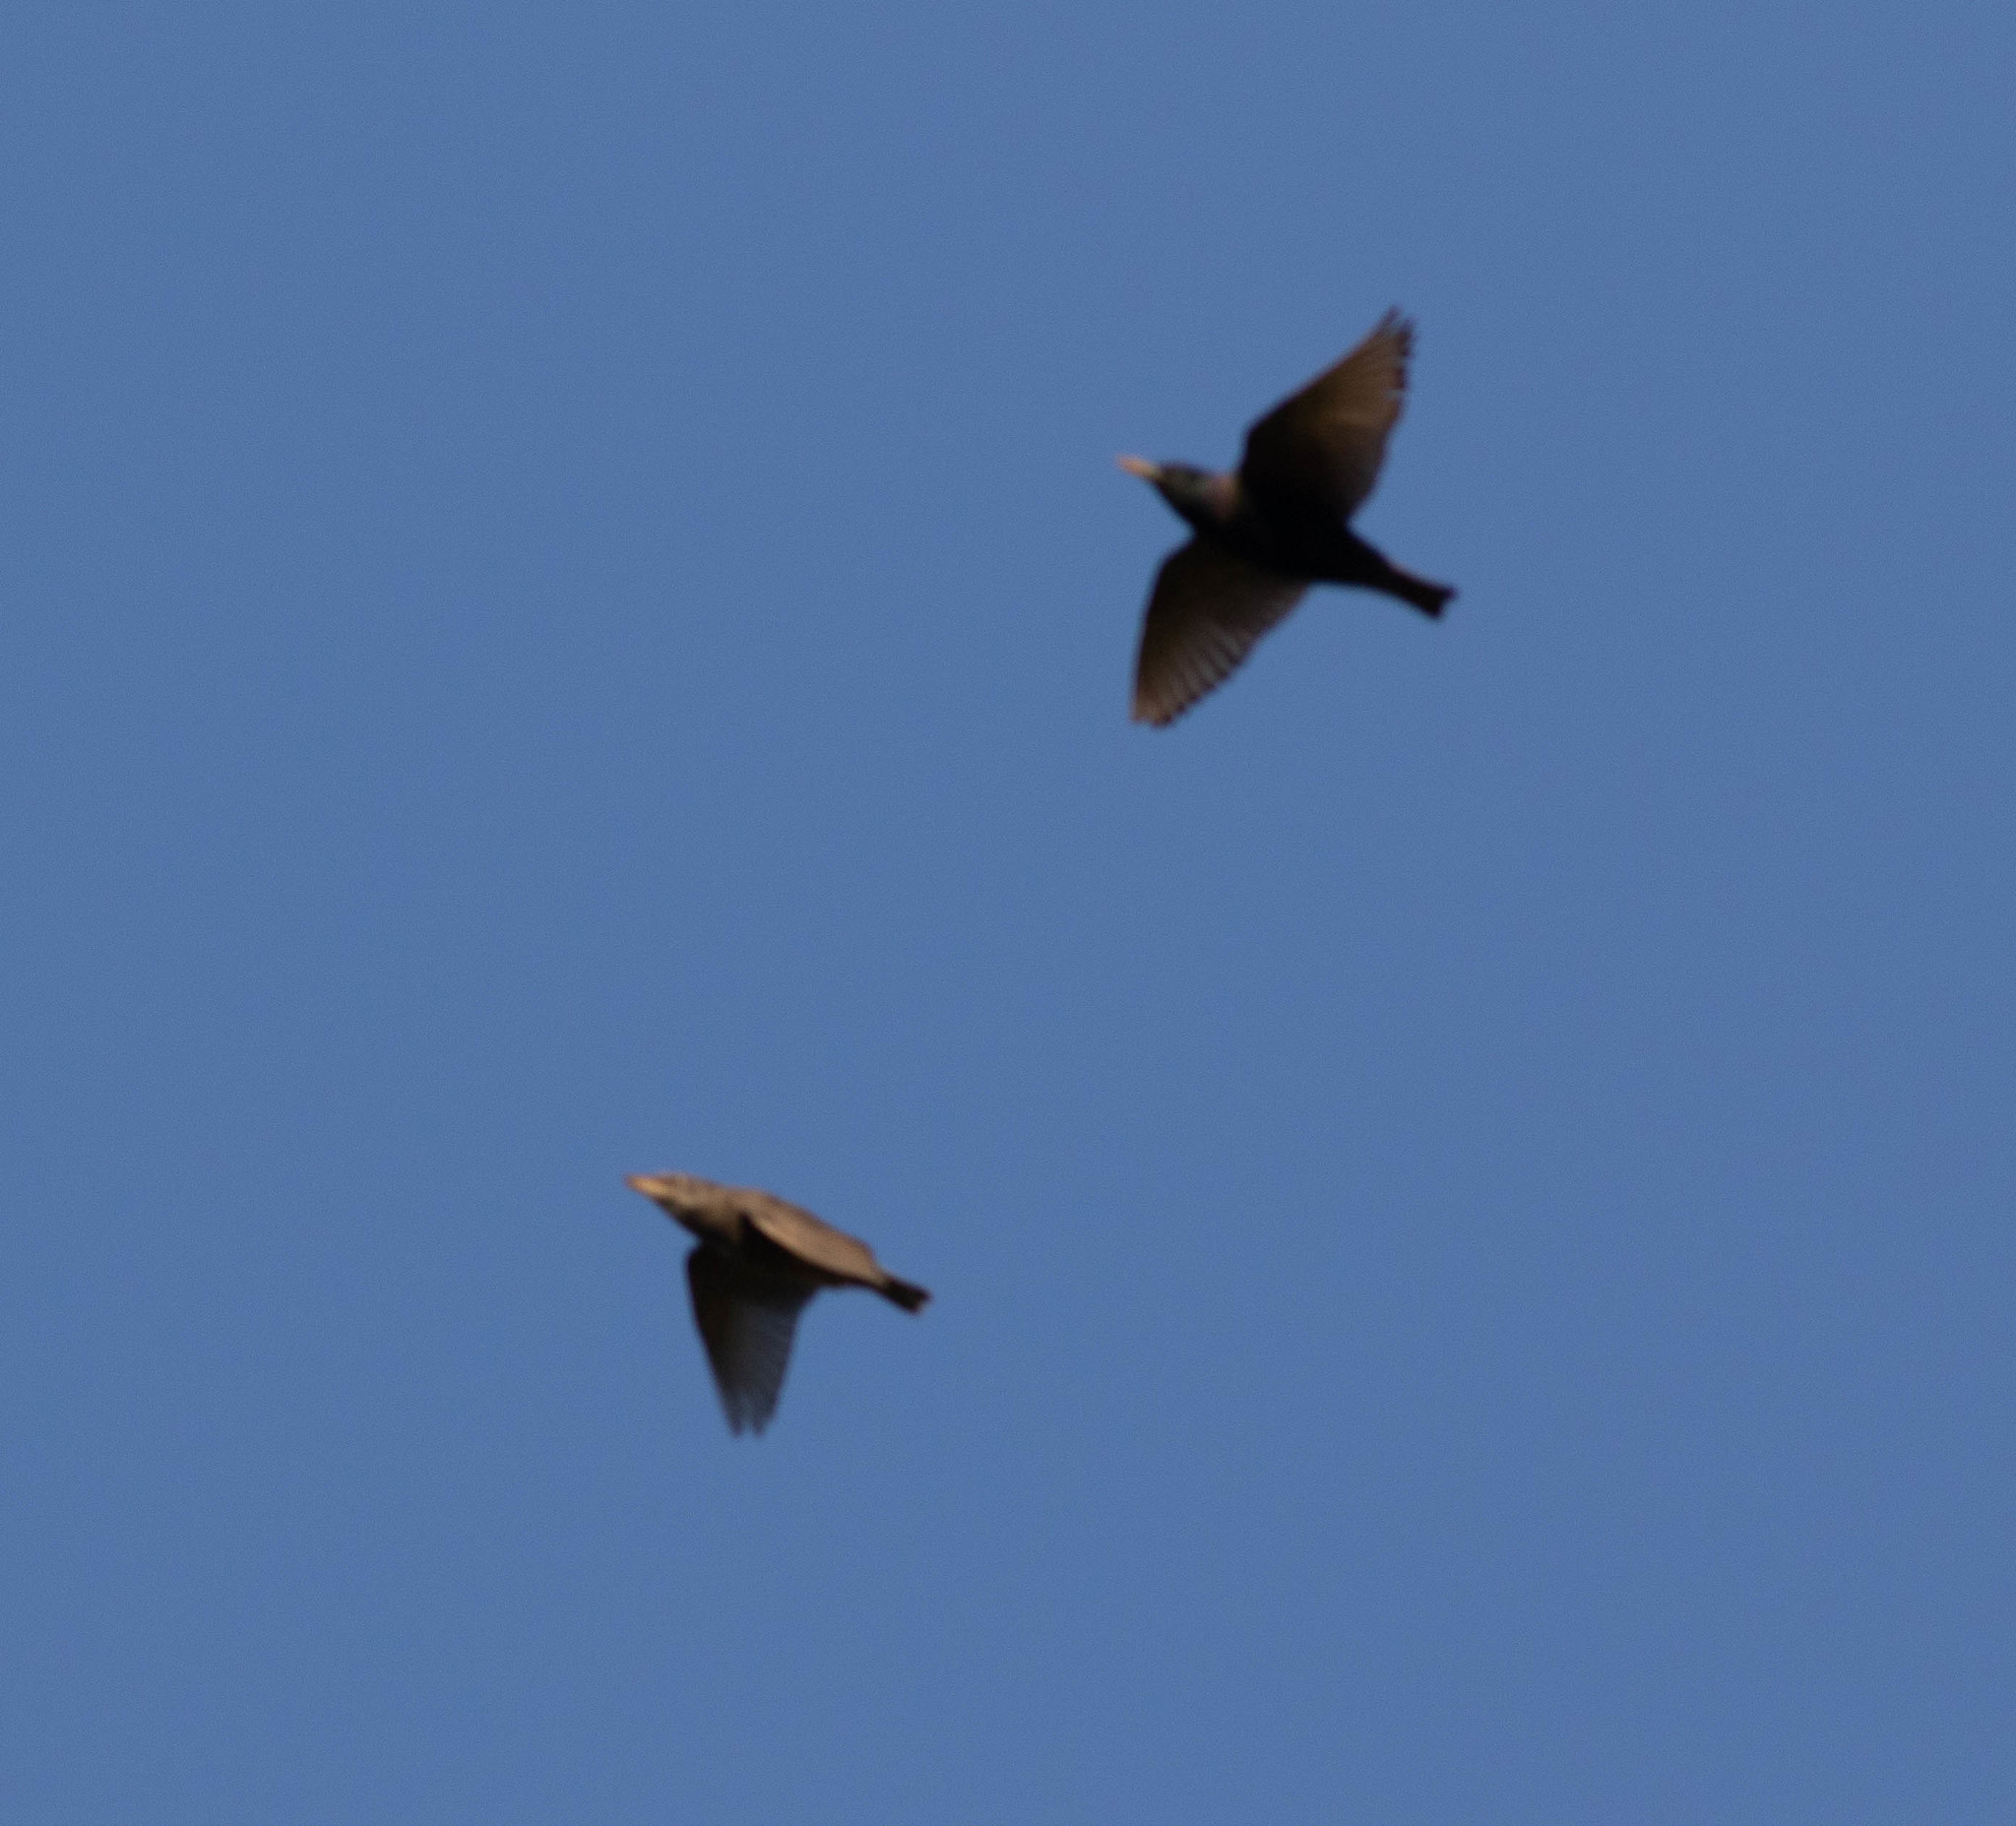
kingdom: Animalia
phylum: Chordata
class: Aves
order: Passeriformes
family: Sturnidae
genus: Sturnus
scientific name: Sturnus vulgaris
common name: Common starling
